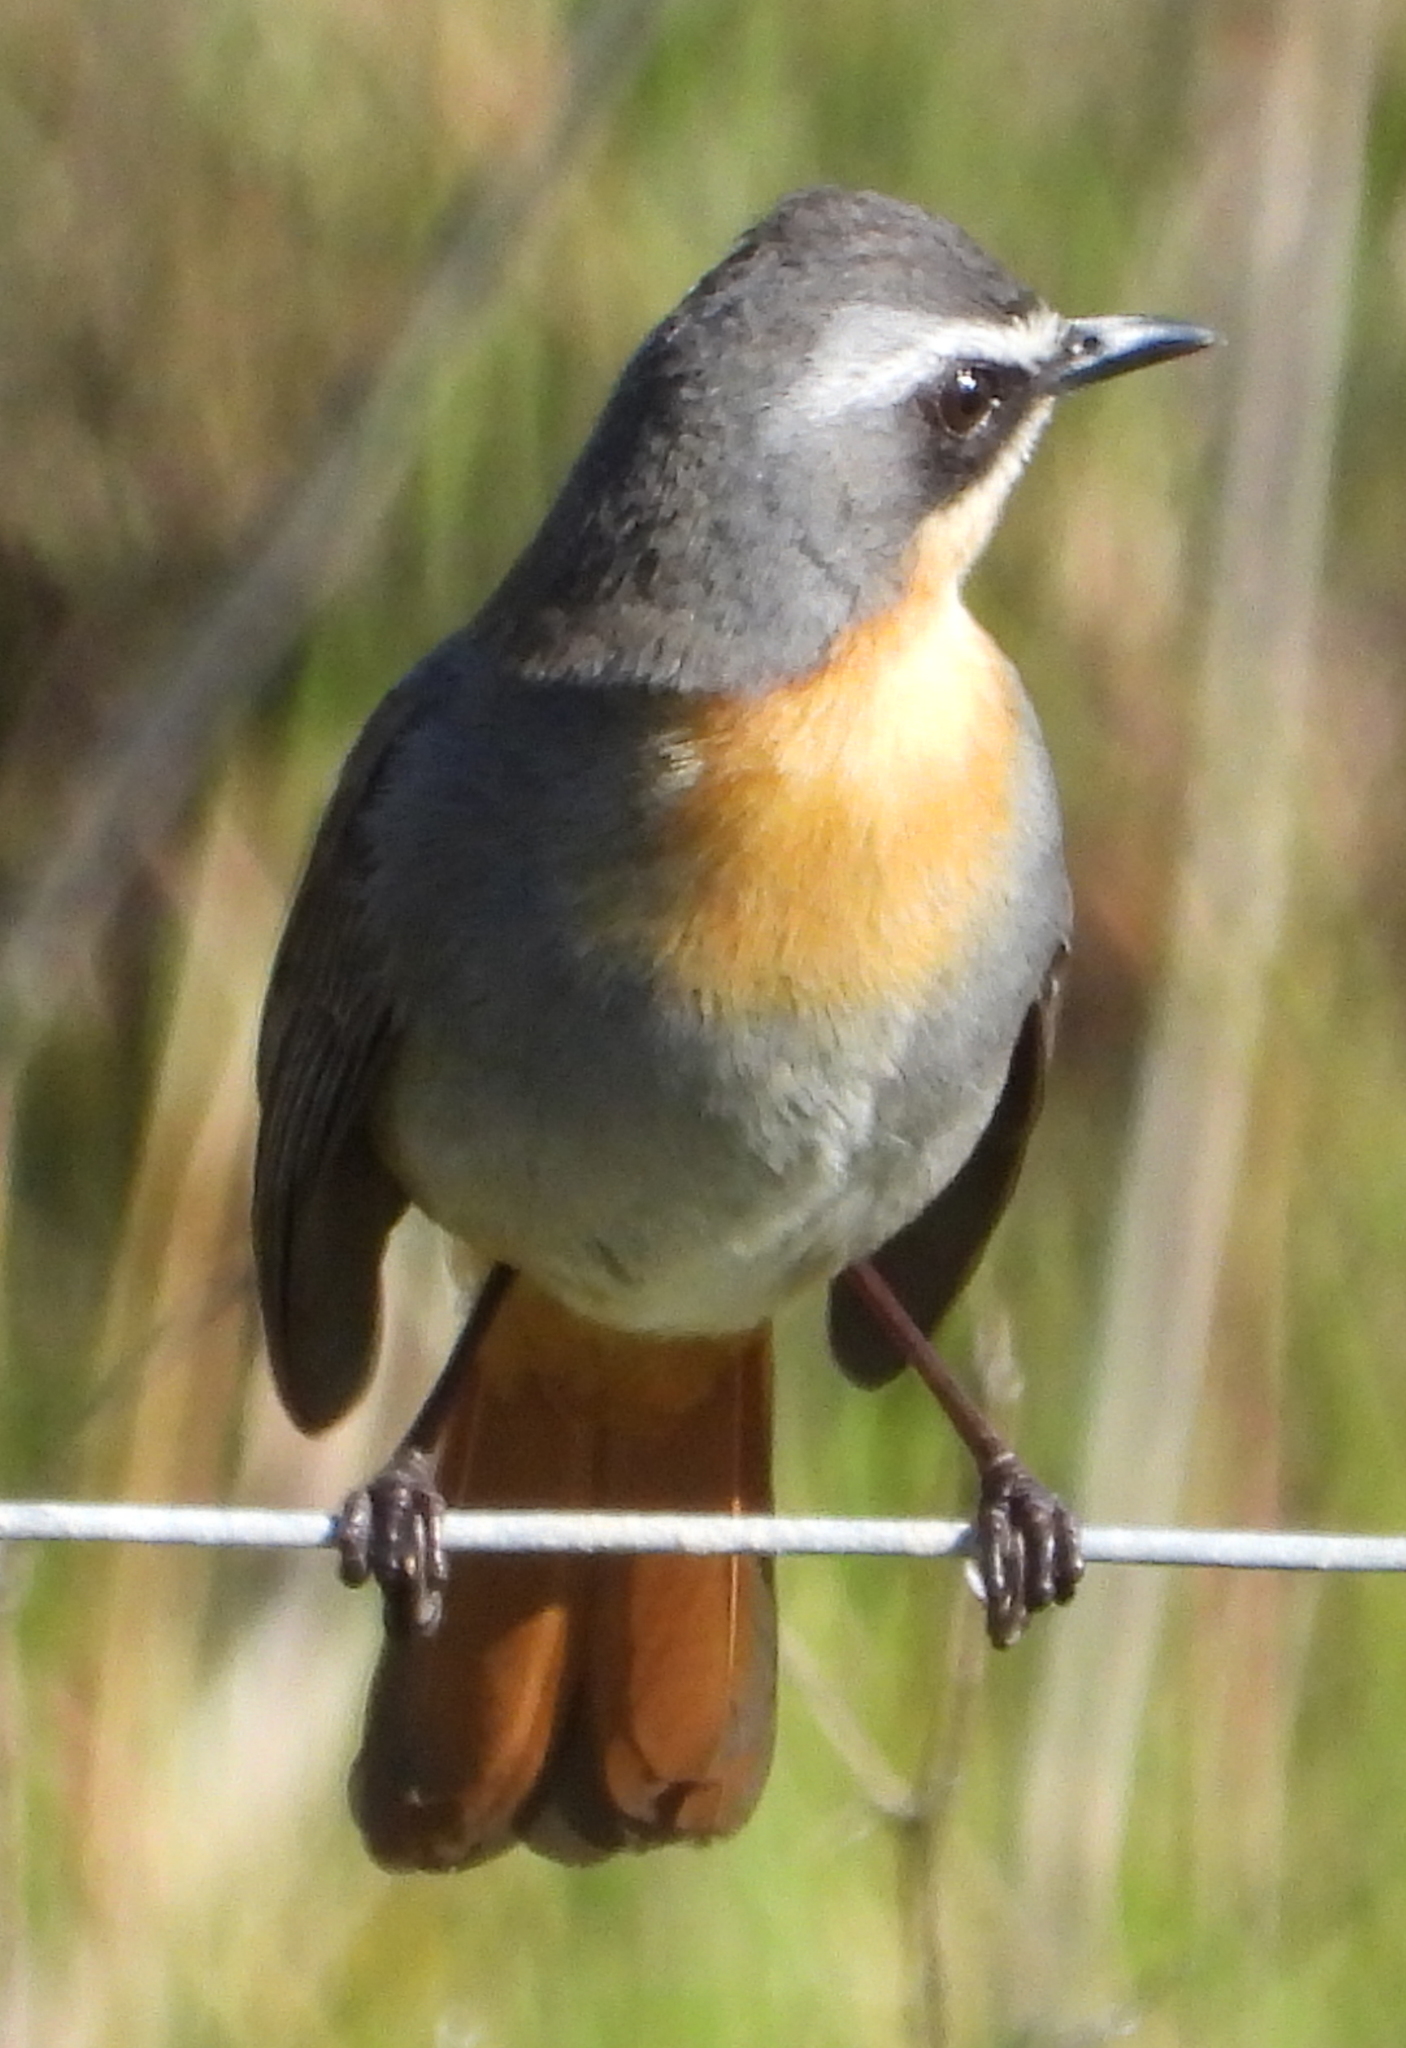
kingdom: Animalia
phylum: Chordata
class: Aves
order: Passeriformes
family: Muscicapidae
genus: Cossypha
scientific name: Cossypha caffra
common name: Cape robin-chat
